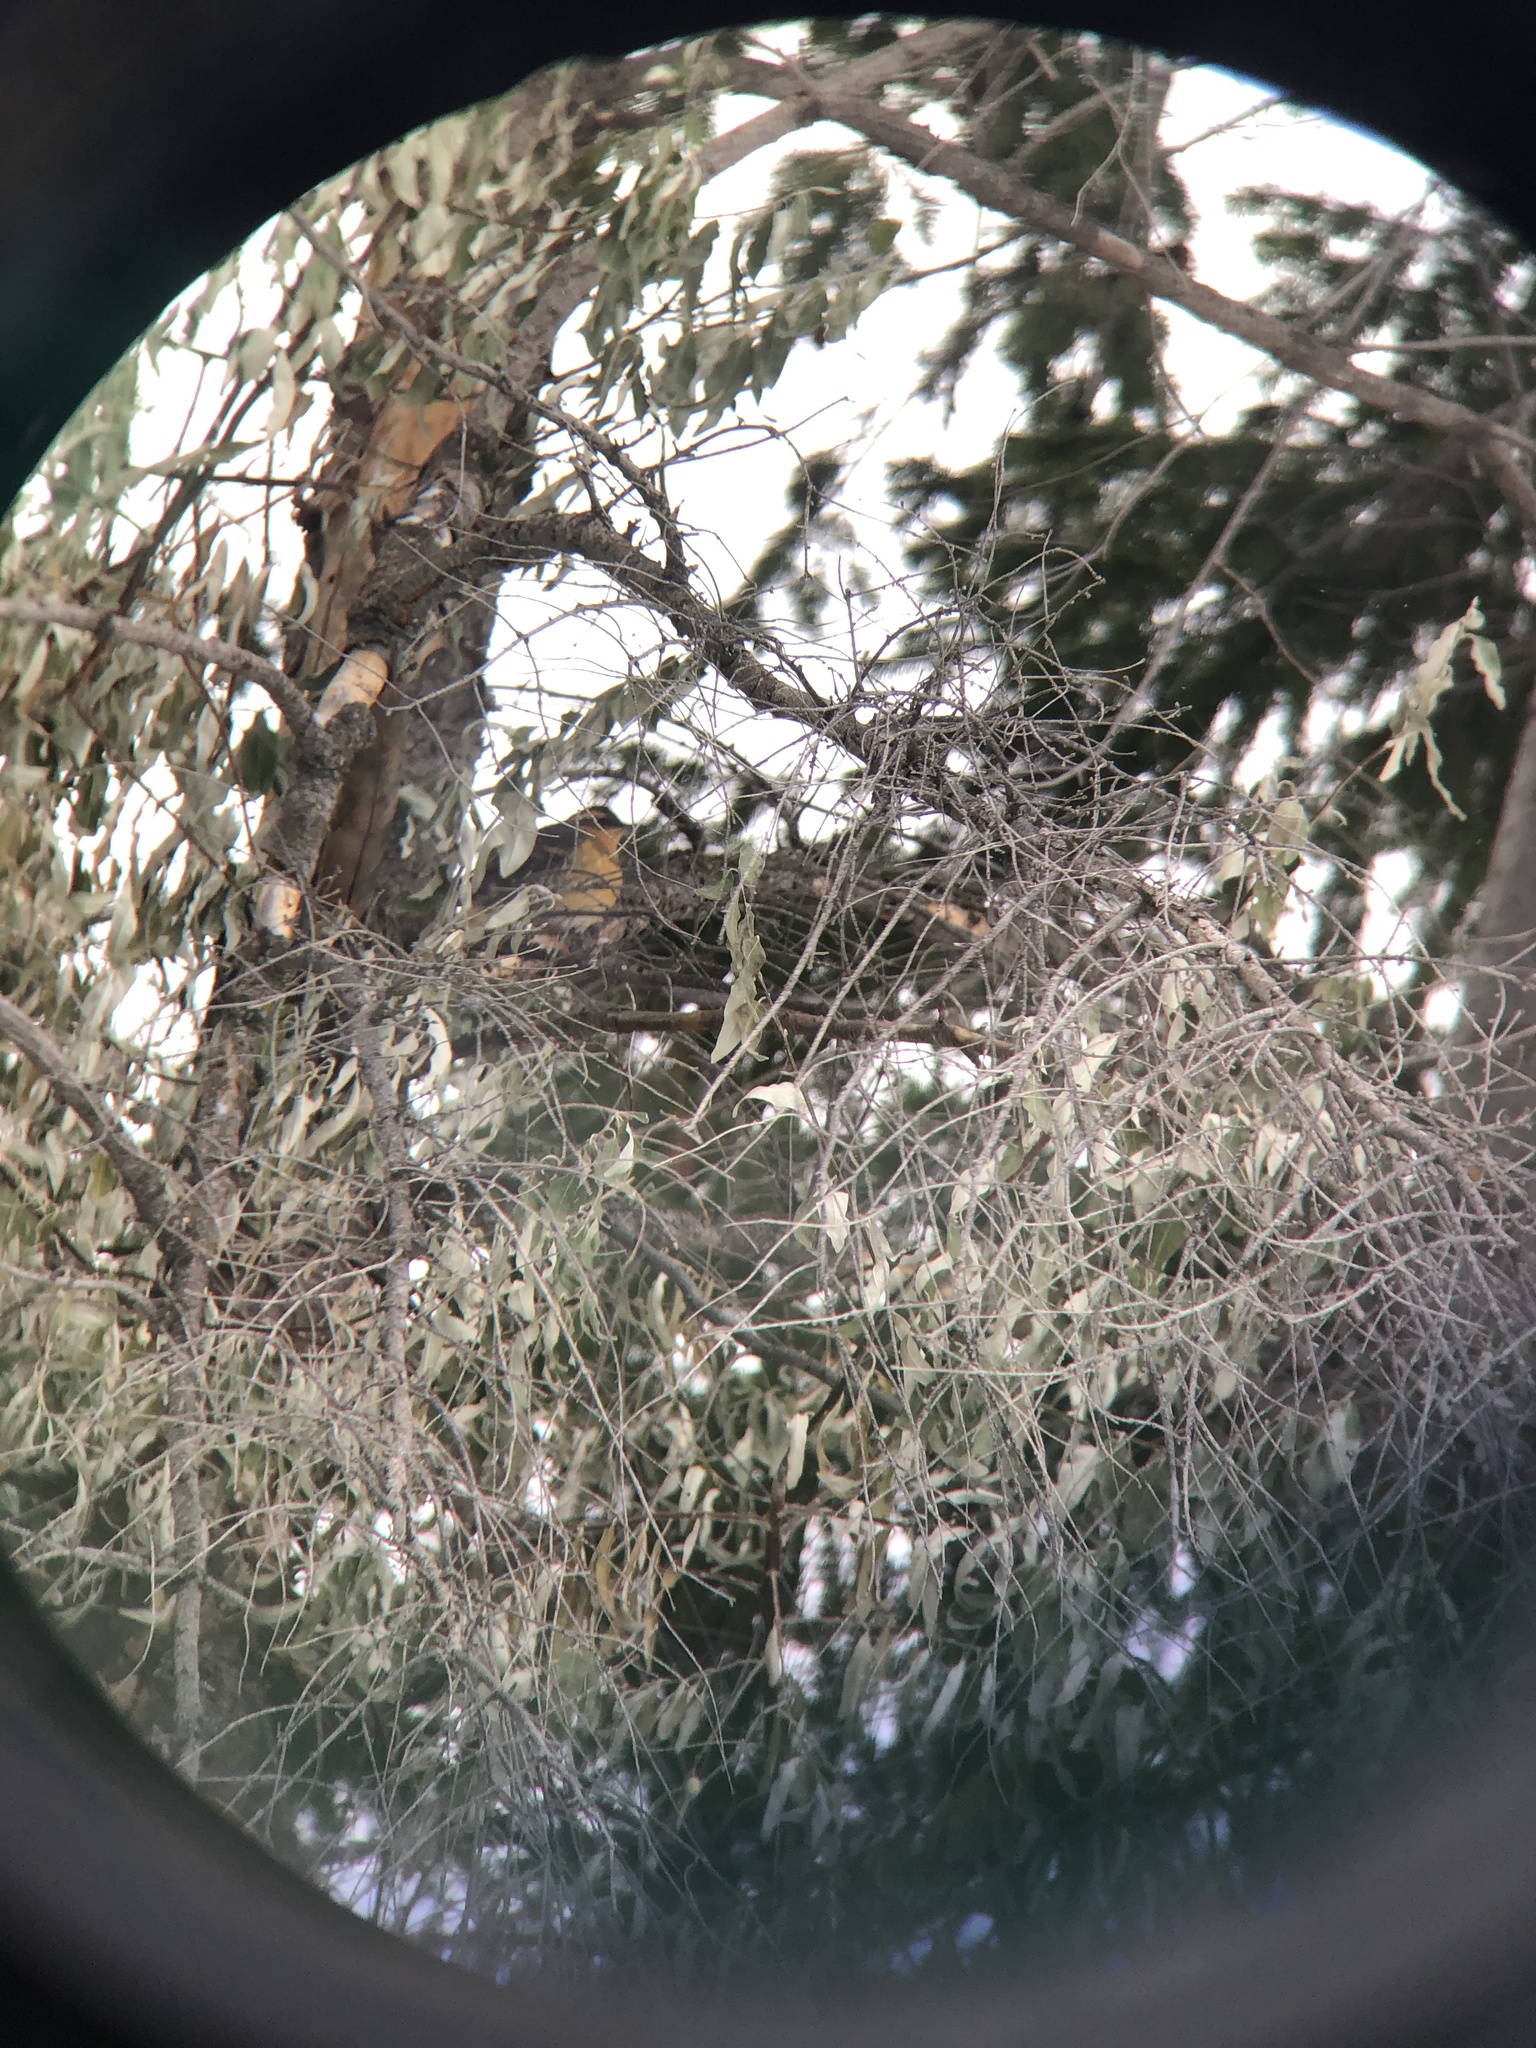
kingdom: Animalia
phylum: Chordata
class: Aves
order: Passeriformes
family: Turdidae
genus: Ixoreus
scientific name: Ixoreus naevius
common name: Varied thrush
